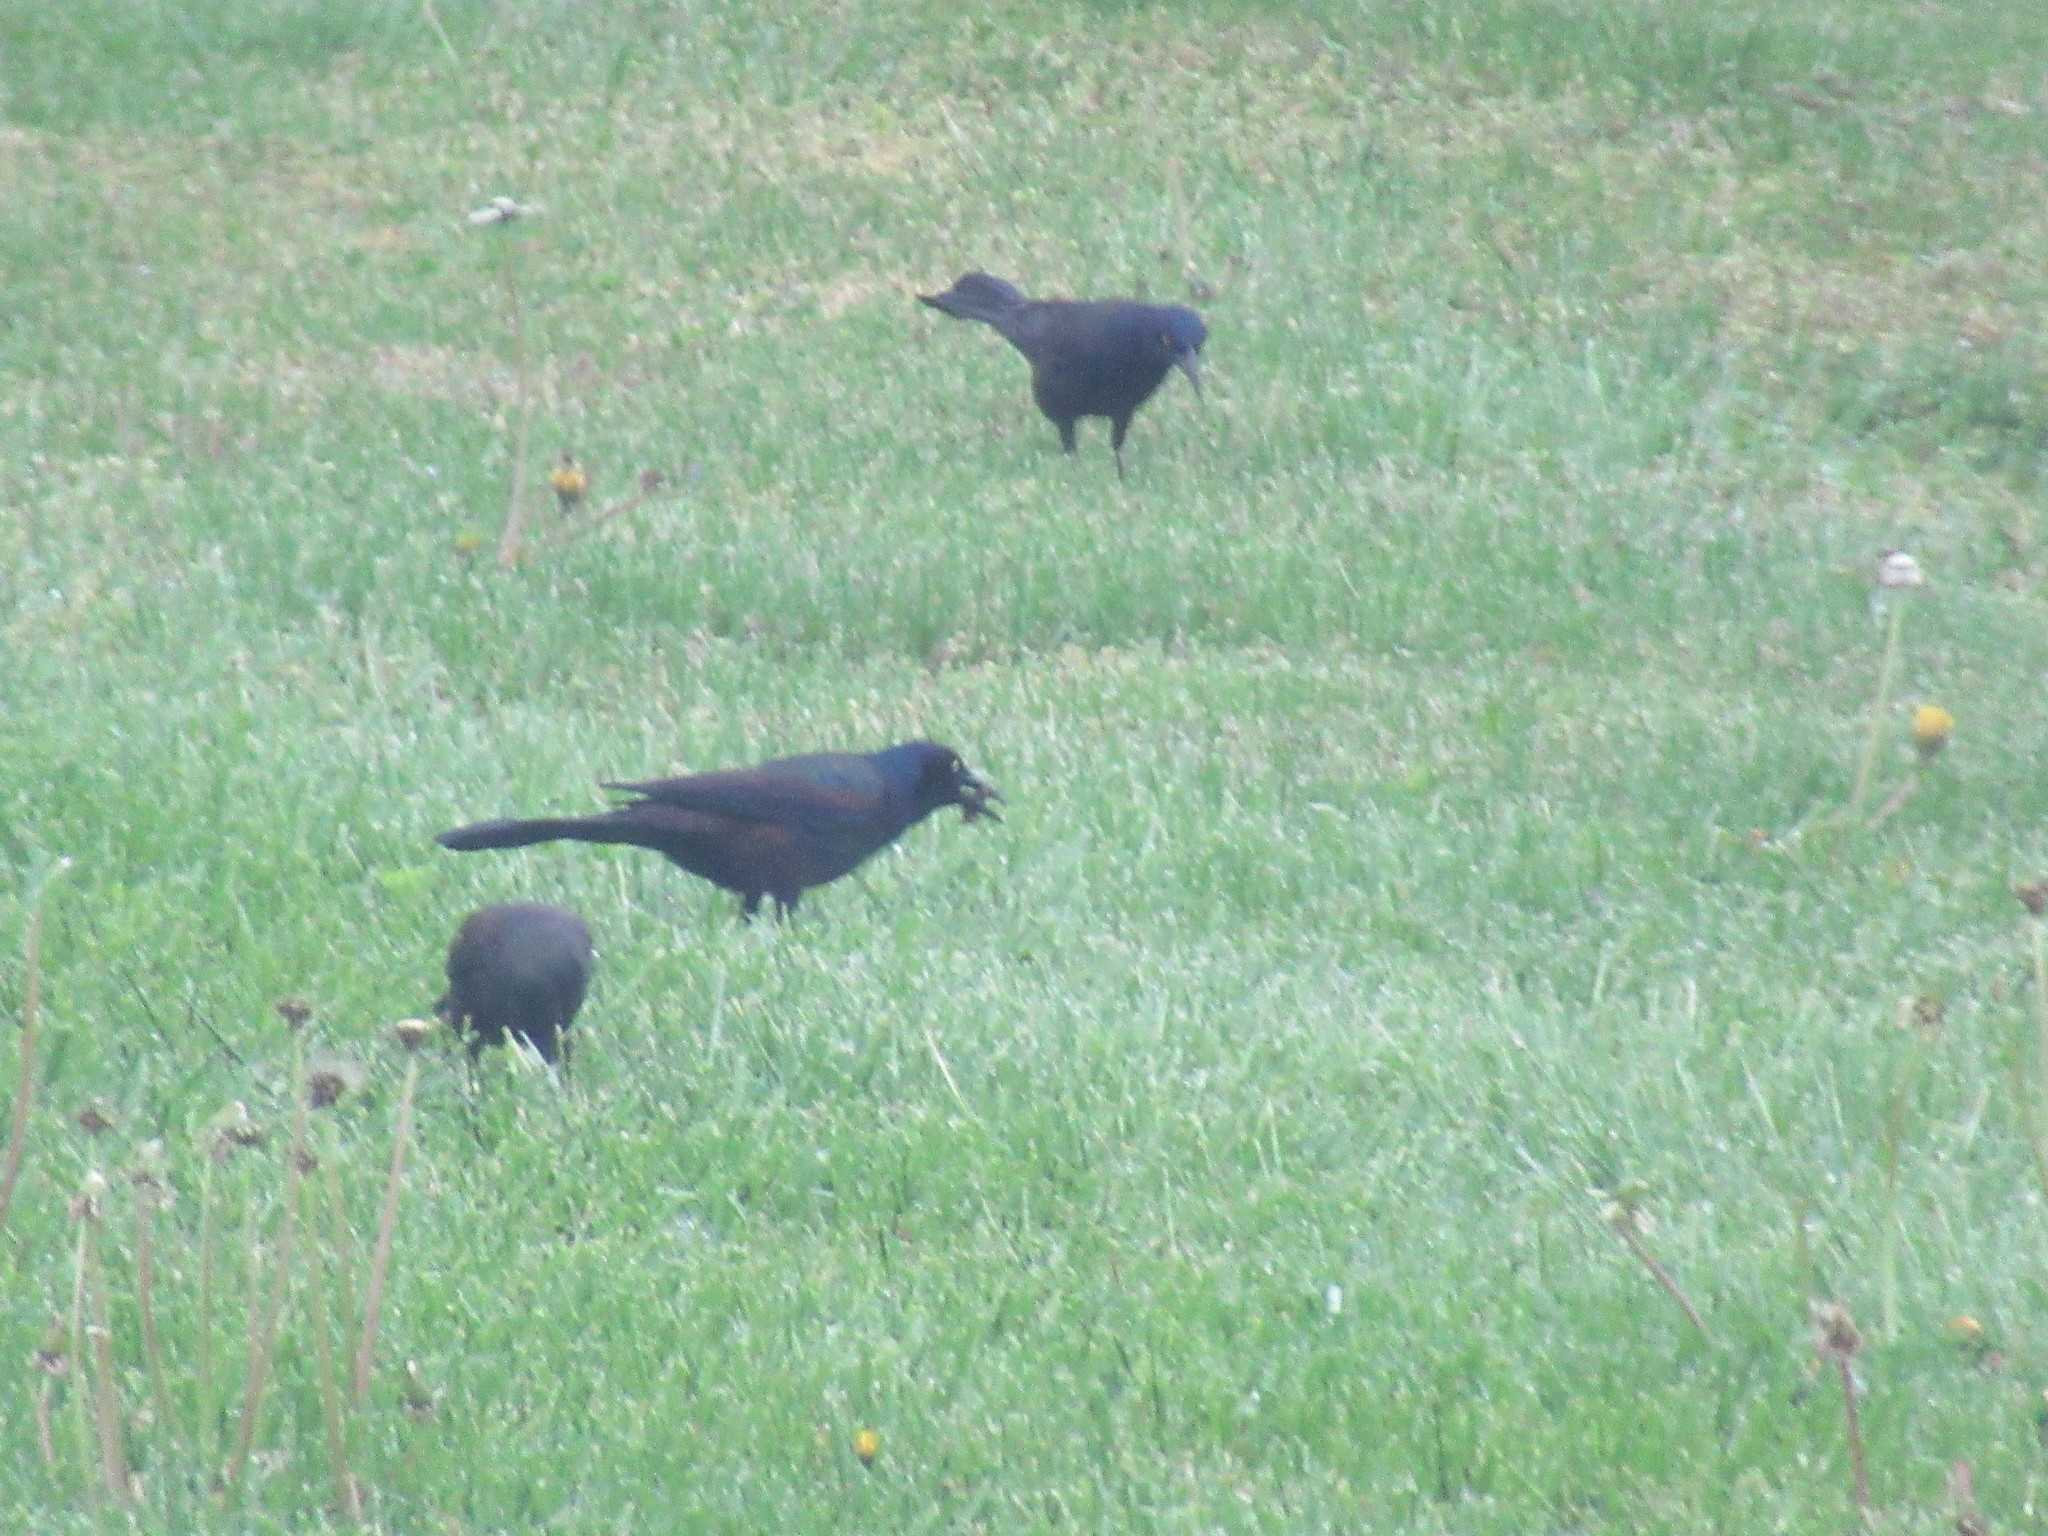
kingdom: Animalia
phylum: Chordata
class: Aves
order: Passeriformes
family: Icteridae
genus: Quiscalus
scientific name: Quiscalus quiscula
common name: Common grackle
